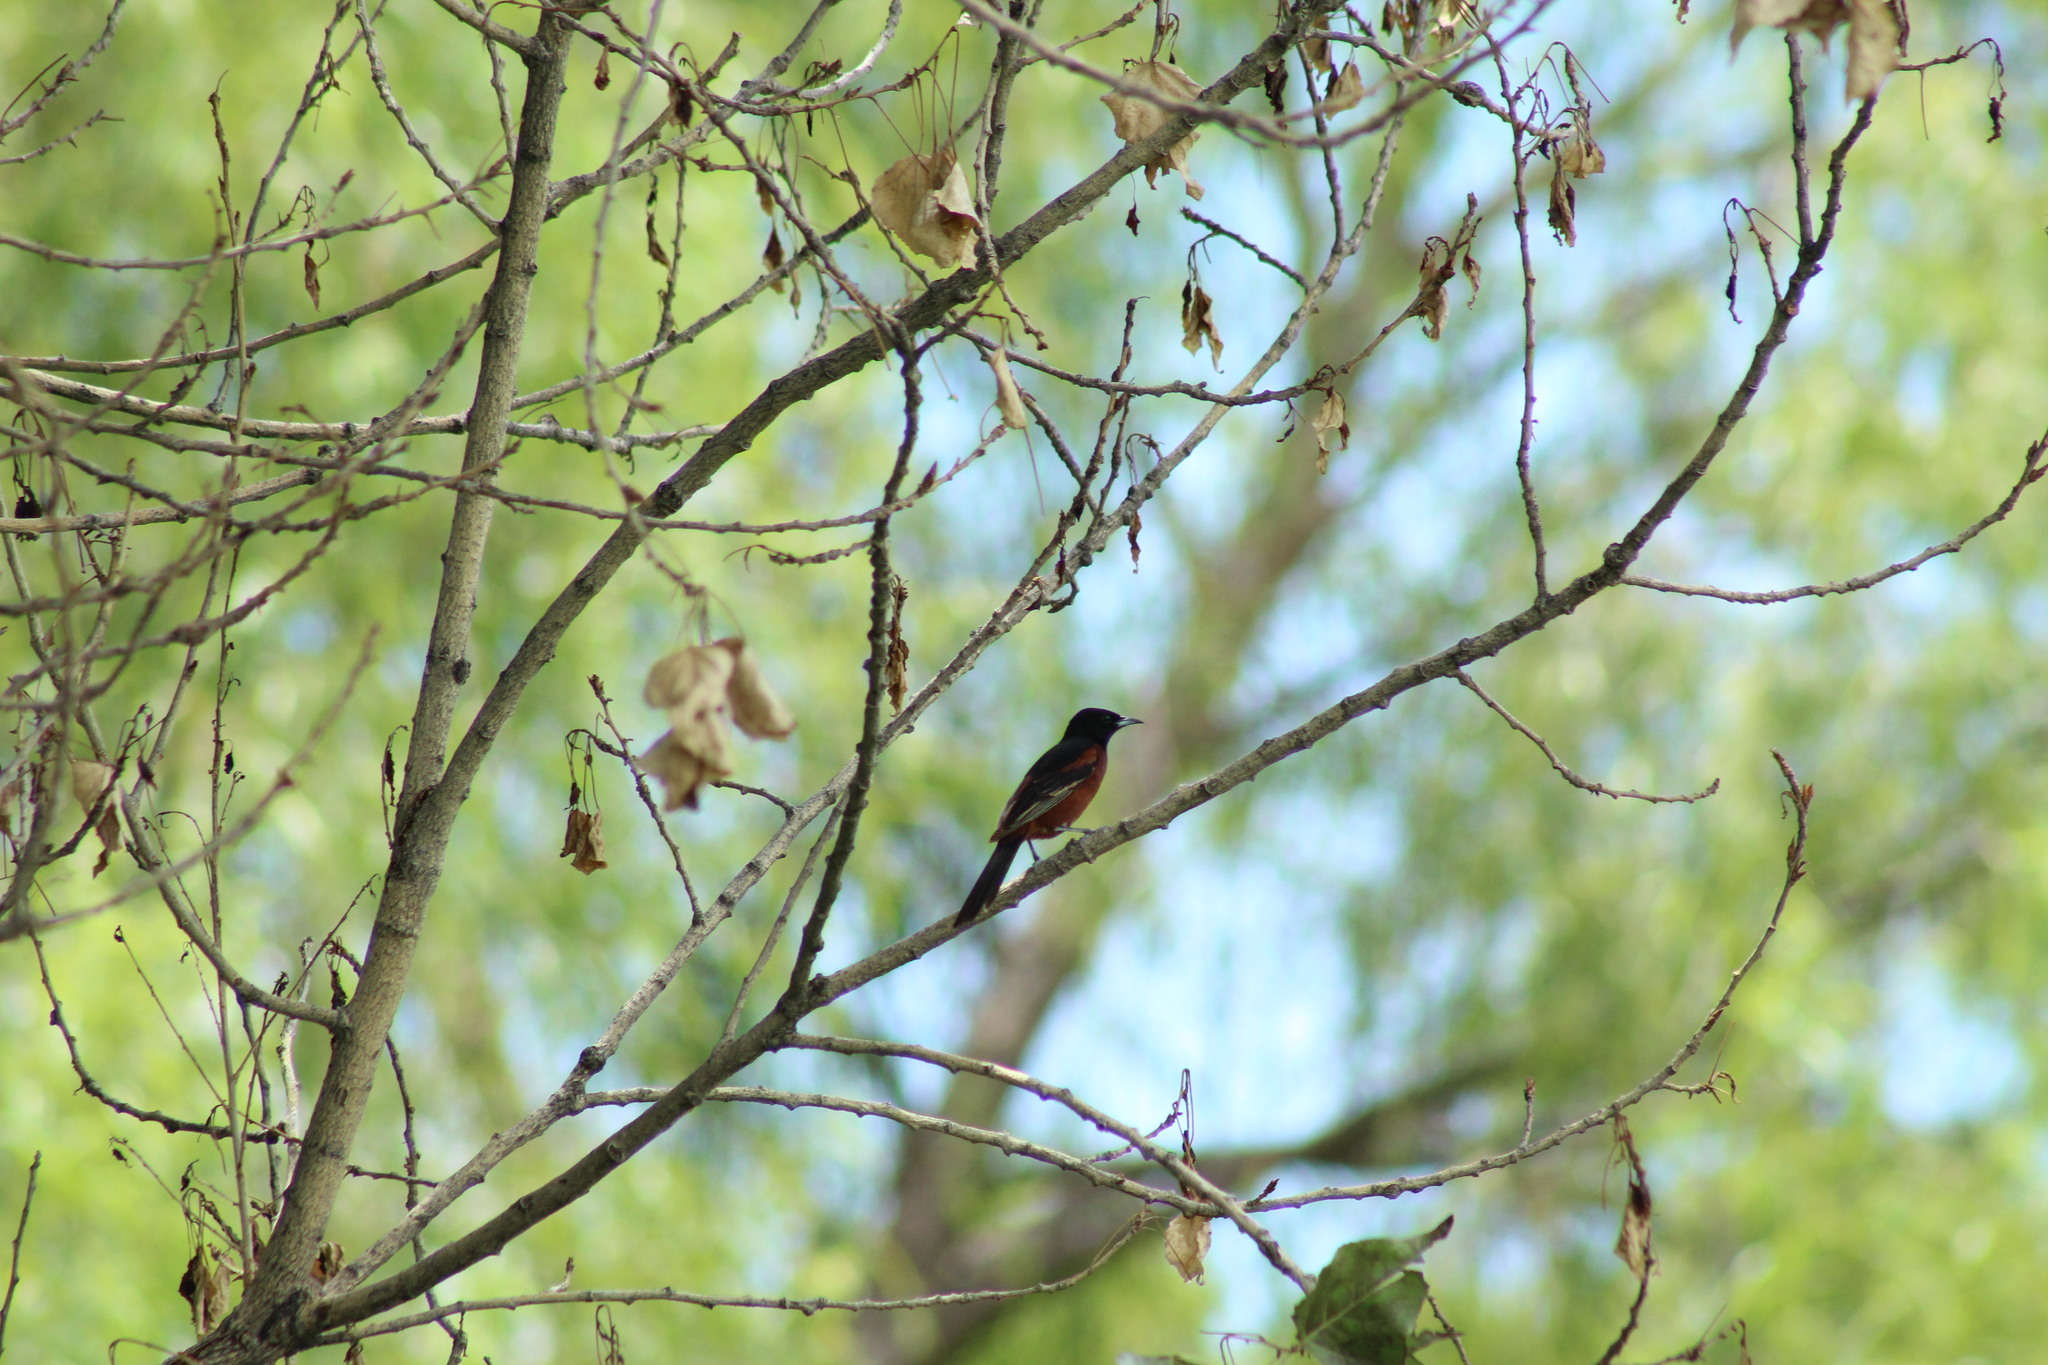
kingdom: Animalia
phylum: Chordata
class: Aves
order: Passeriformes
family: Icteridae
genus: Icterus
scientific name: Icterus spurius
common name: Orchard oriole
